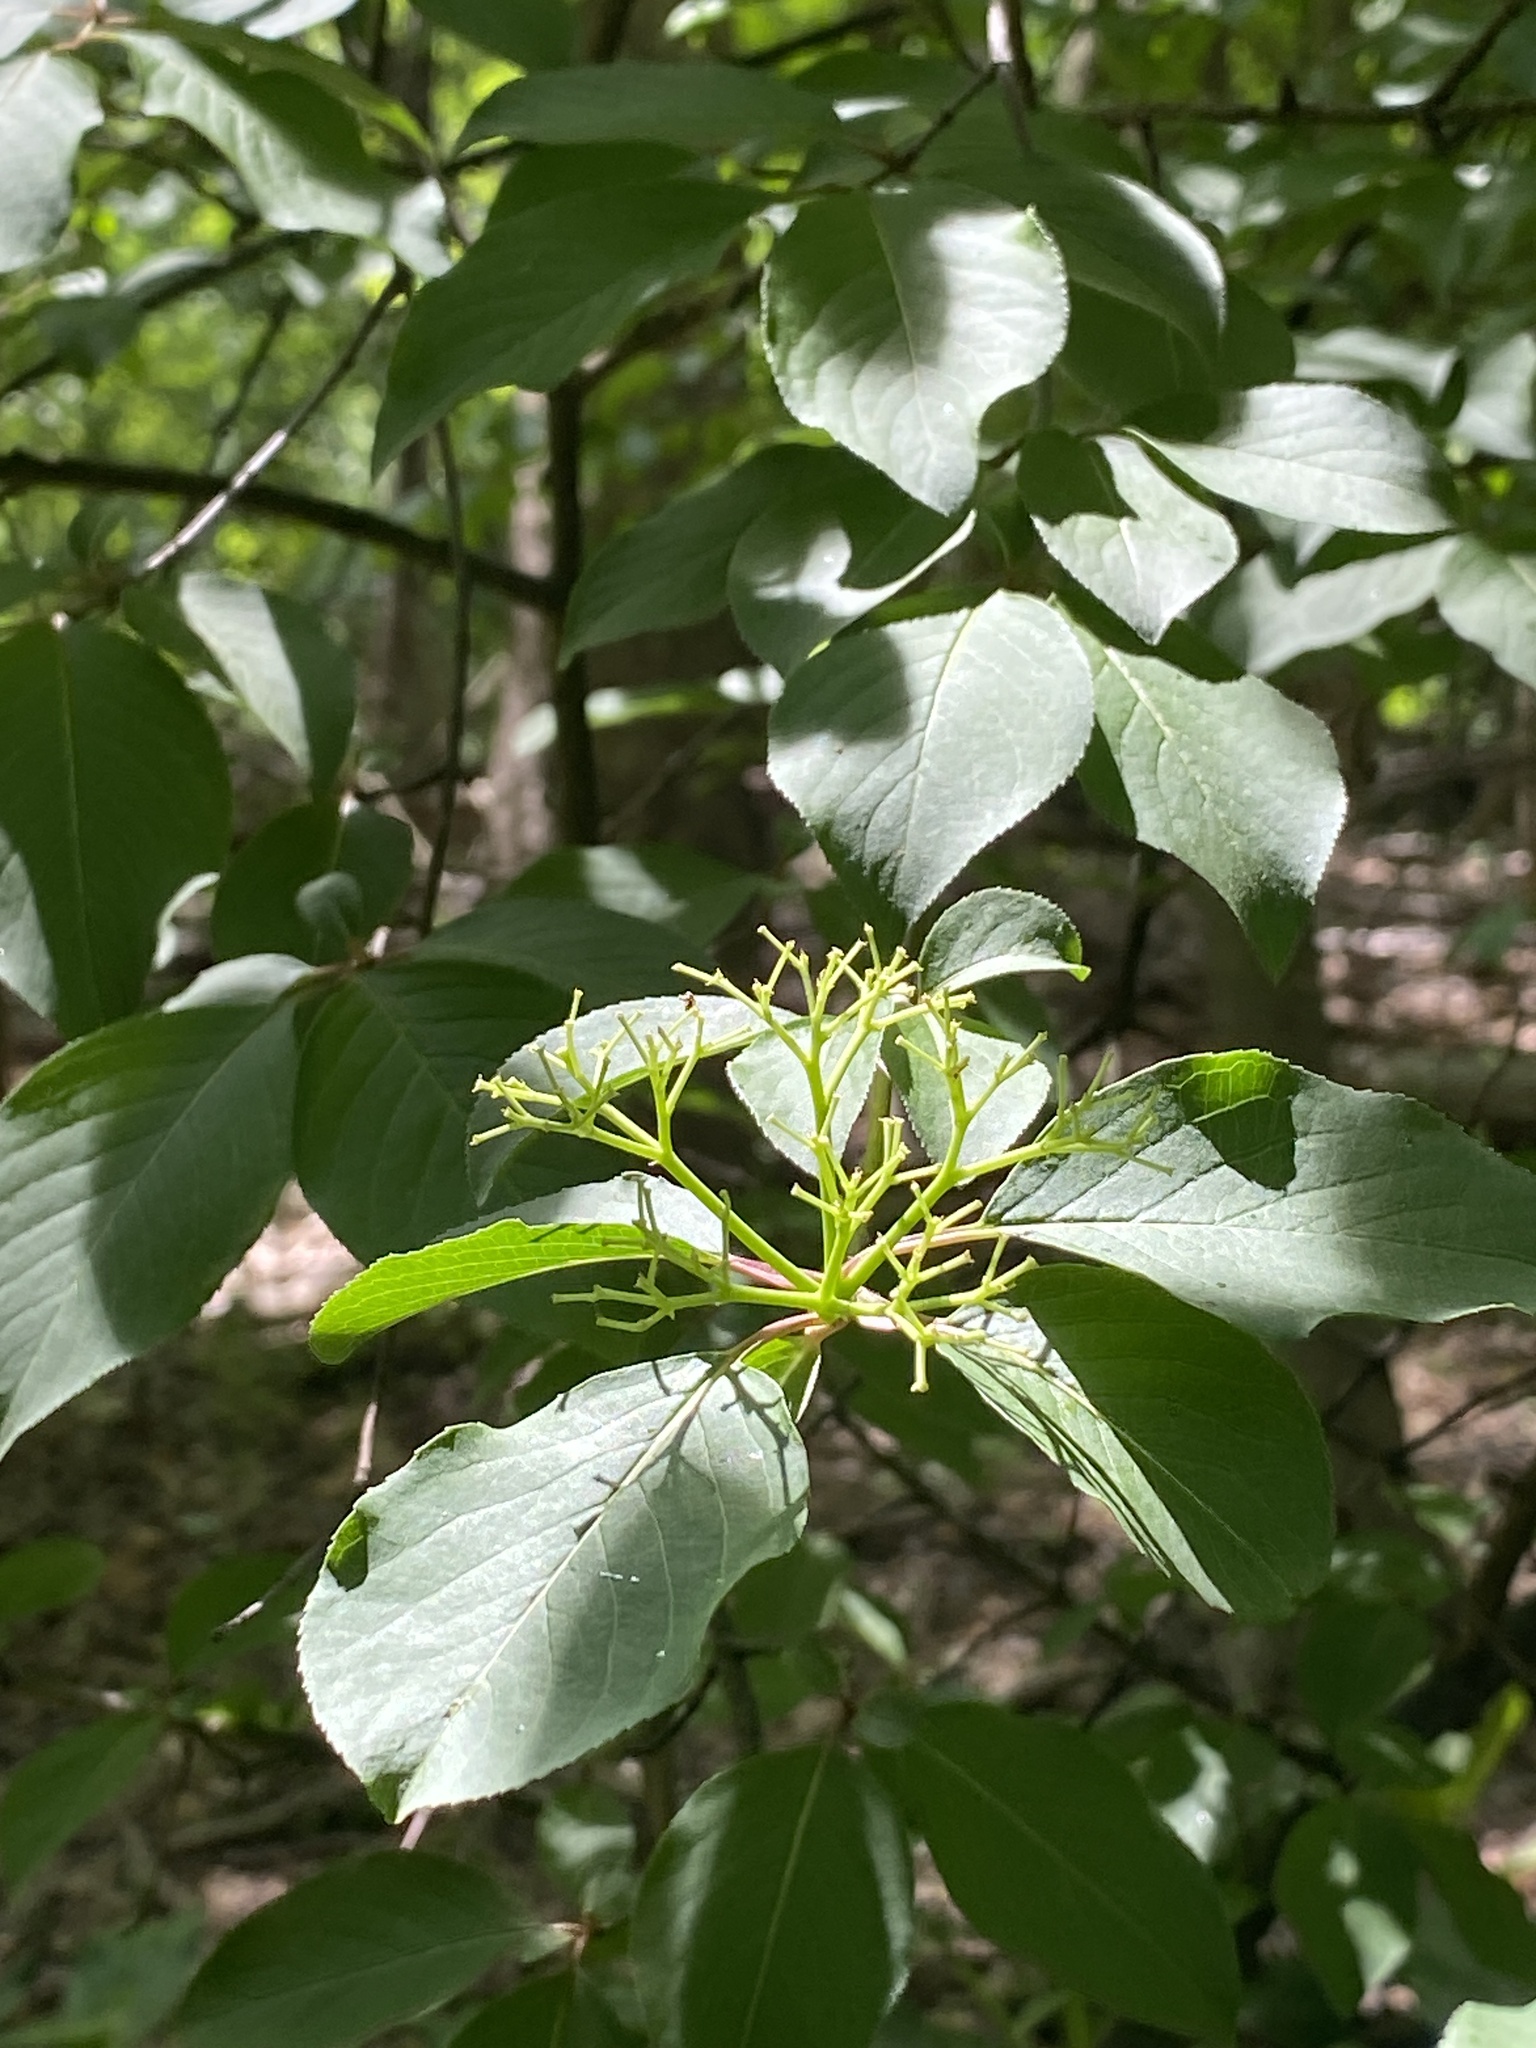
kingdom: Plantae
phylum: Tracheophyta
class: Magnoliopsida
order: Dipsacales
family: Viburnaceae
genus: Viburnum
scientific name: Viburnum prunifolium
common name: Black haw
